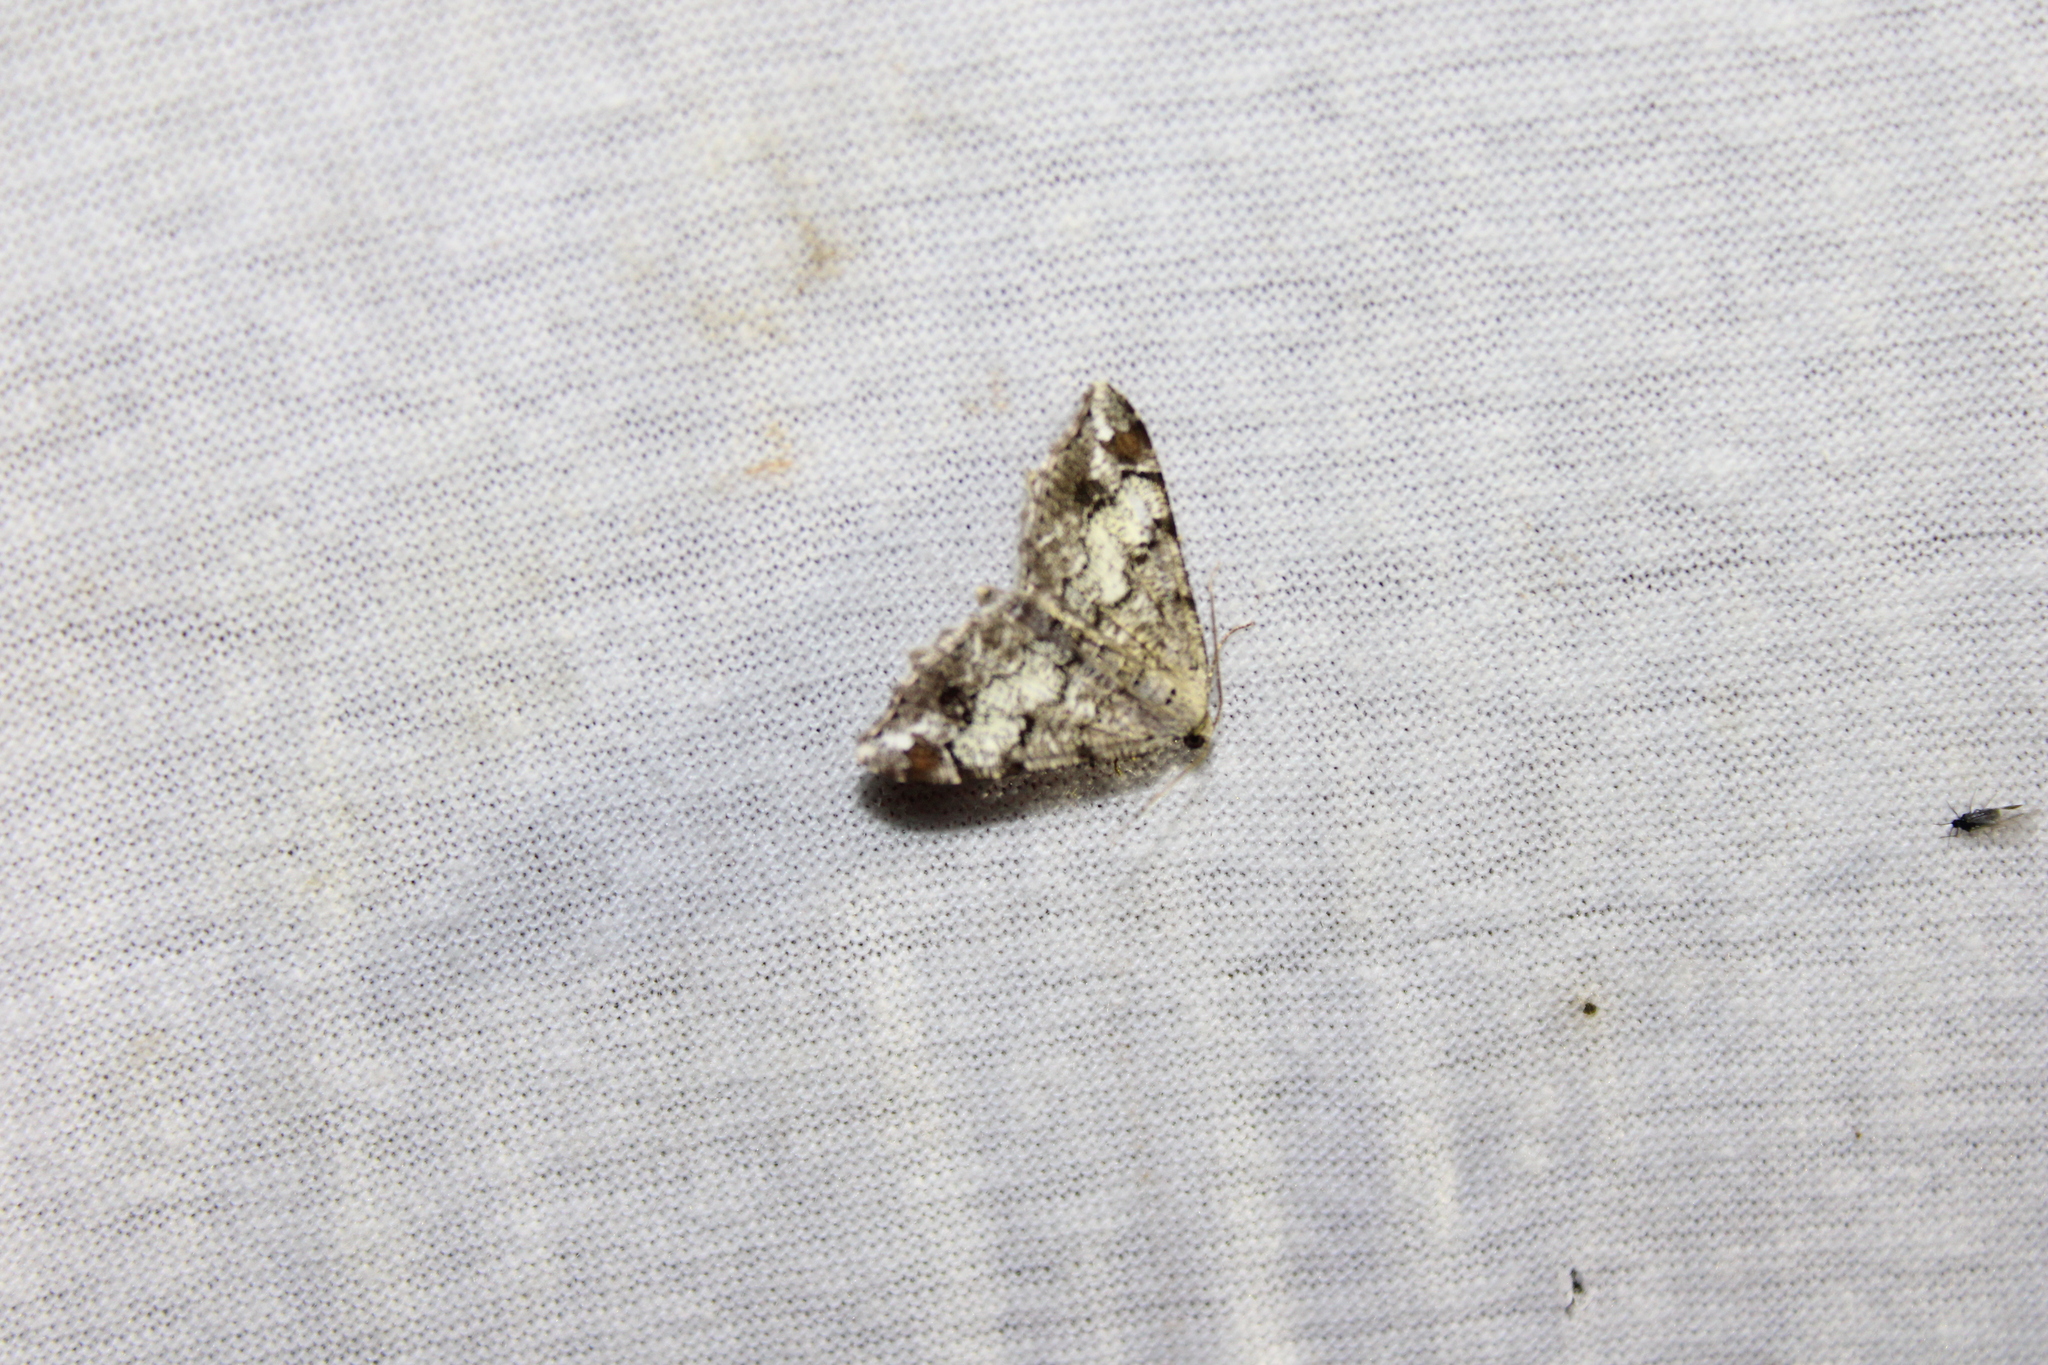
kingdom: Animalia
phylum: Arthropoda
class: Insecta
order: Lepidoptera
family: Geometridae
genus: Macaria
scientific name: Macaria granitata
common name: Granite moth
